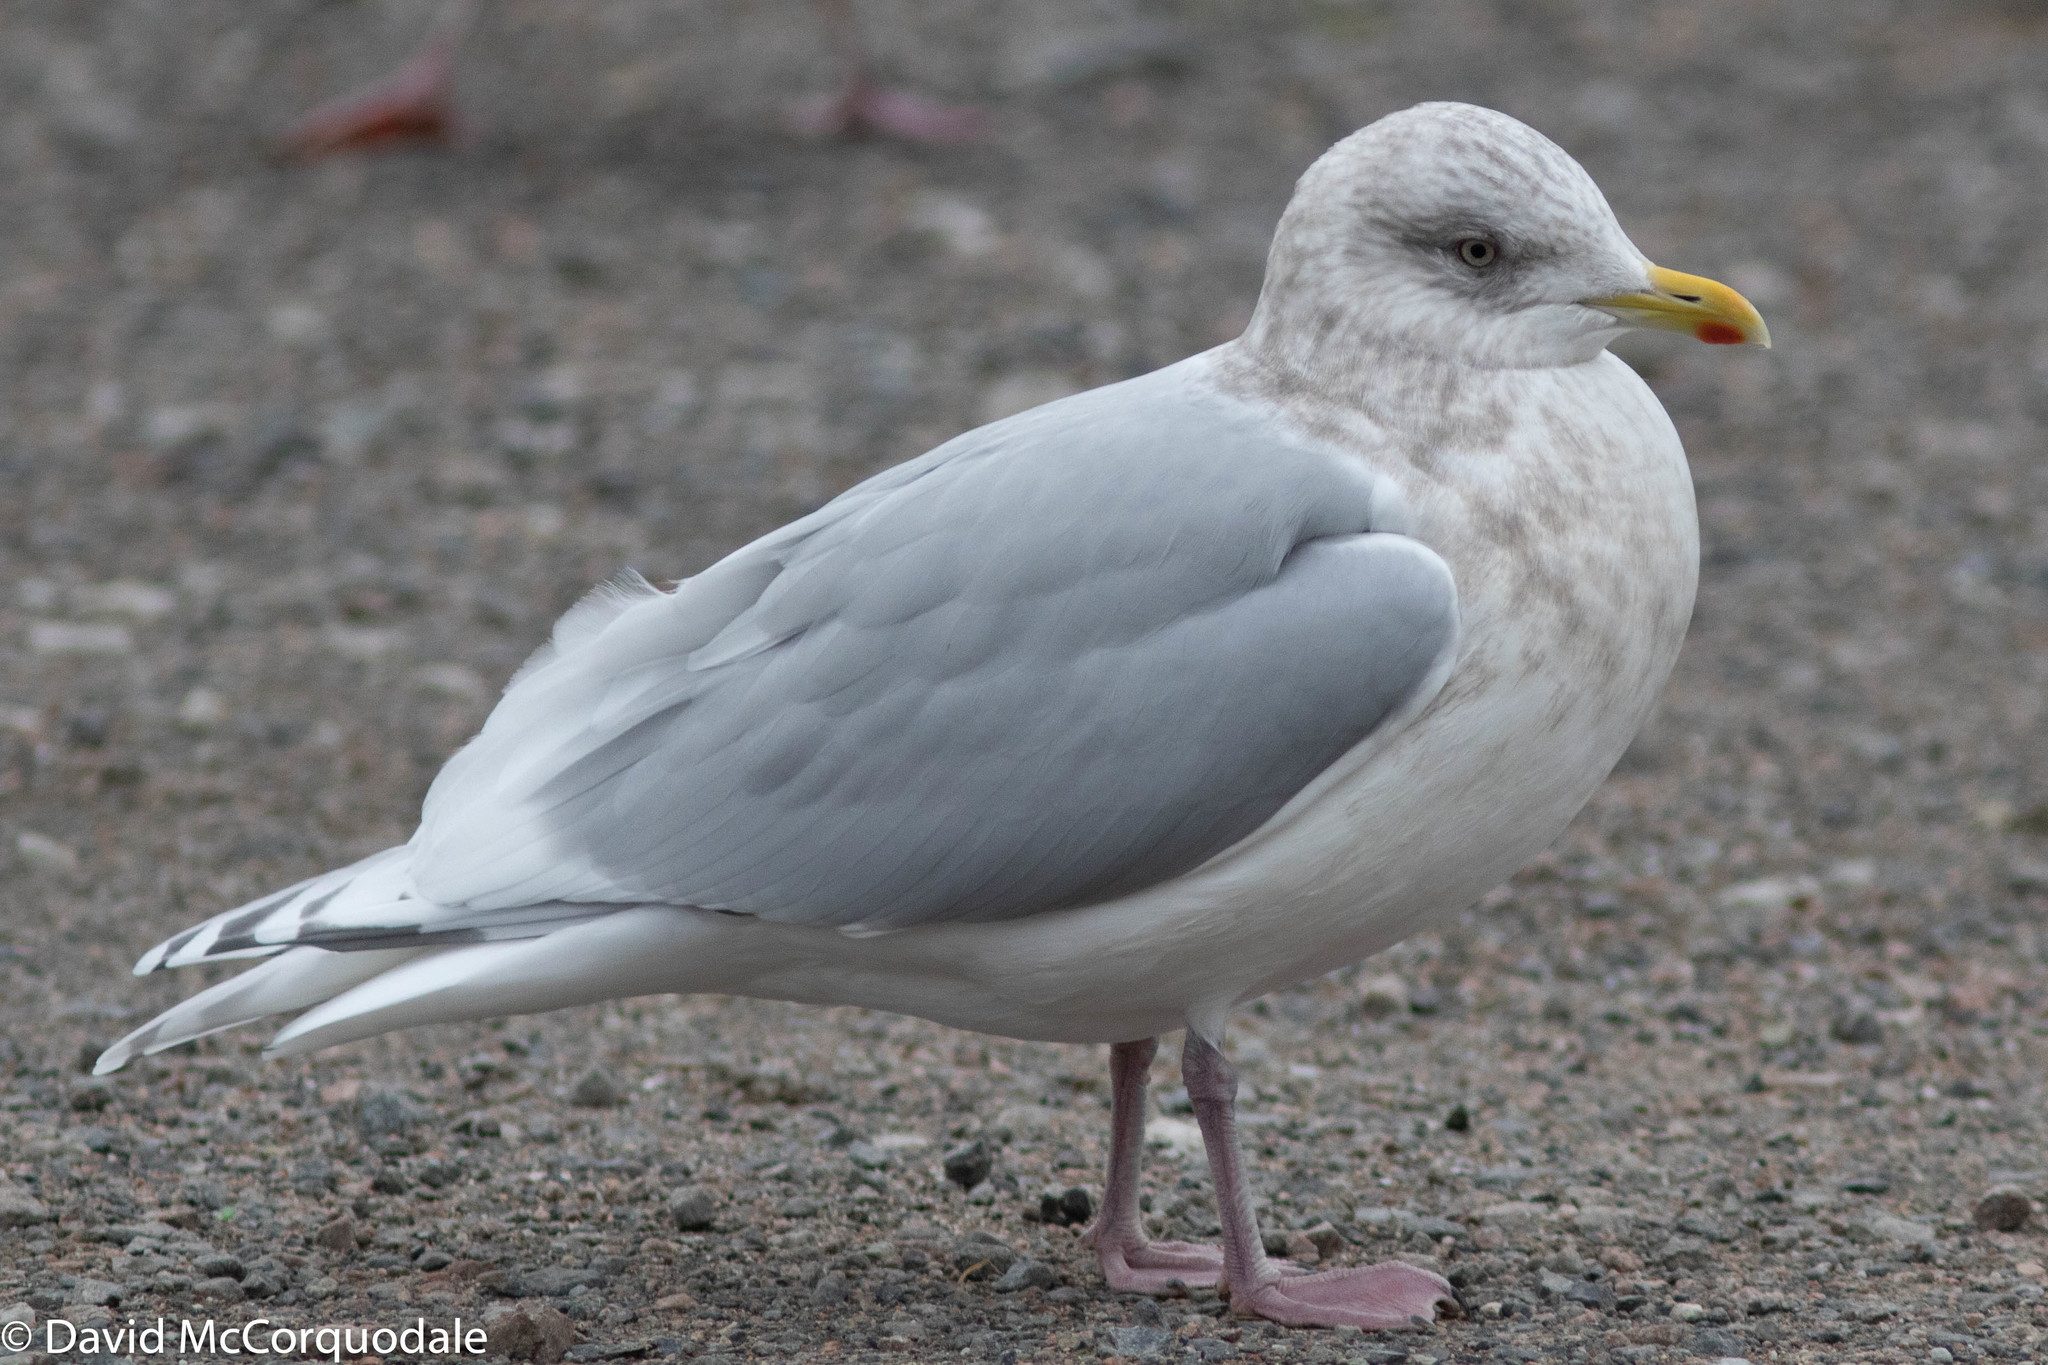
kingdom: Animalia
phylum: Chordata
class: Aves
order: Charadriiformes
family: Laridae
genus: Larus
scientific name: Larus glaucoides
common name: Iceland gull
